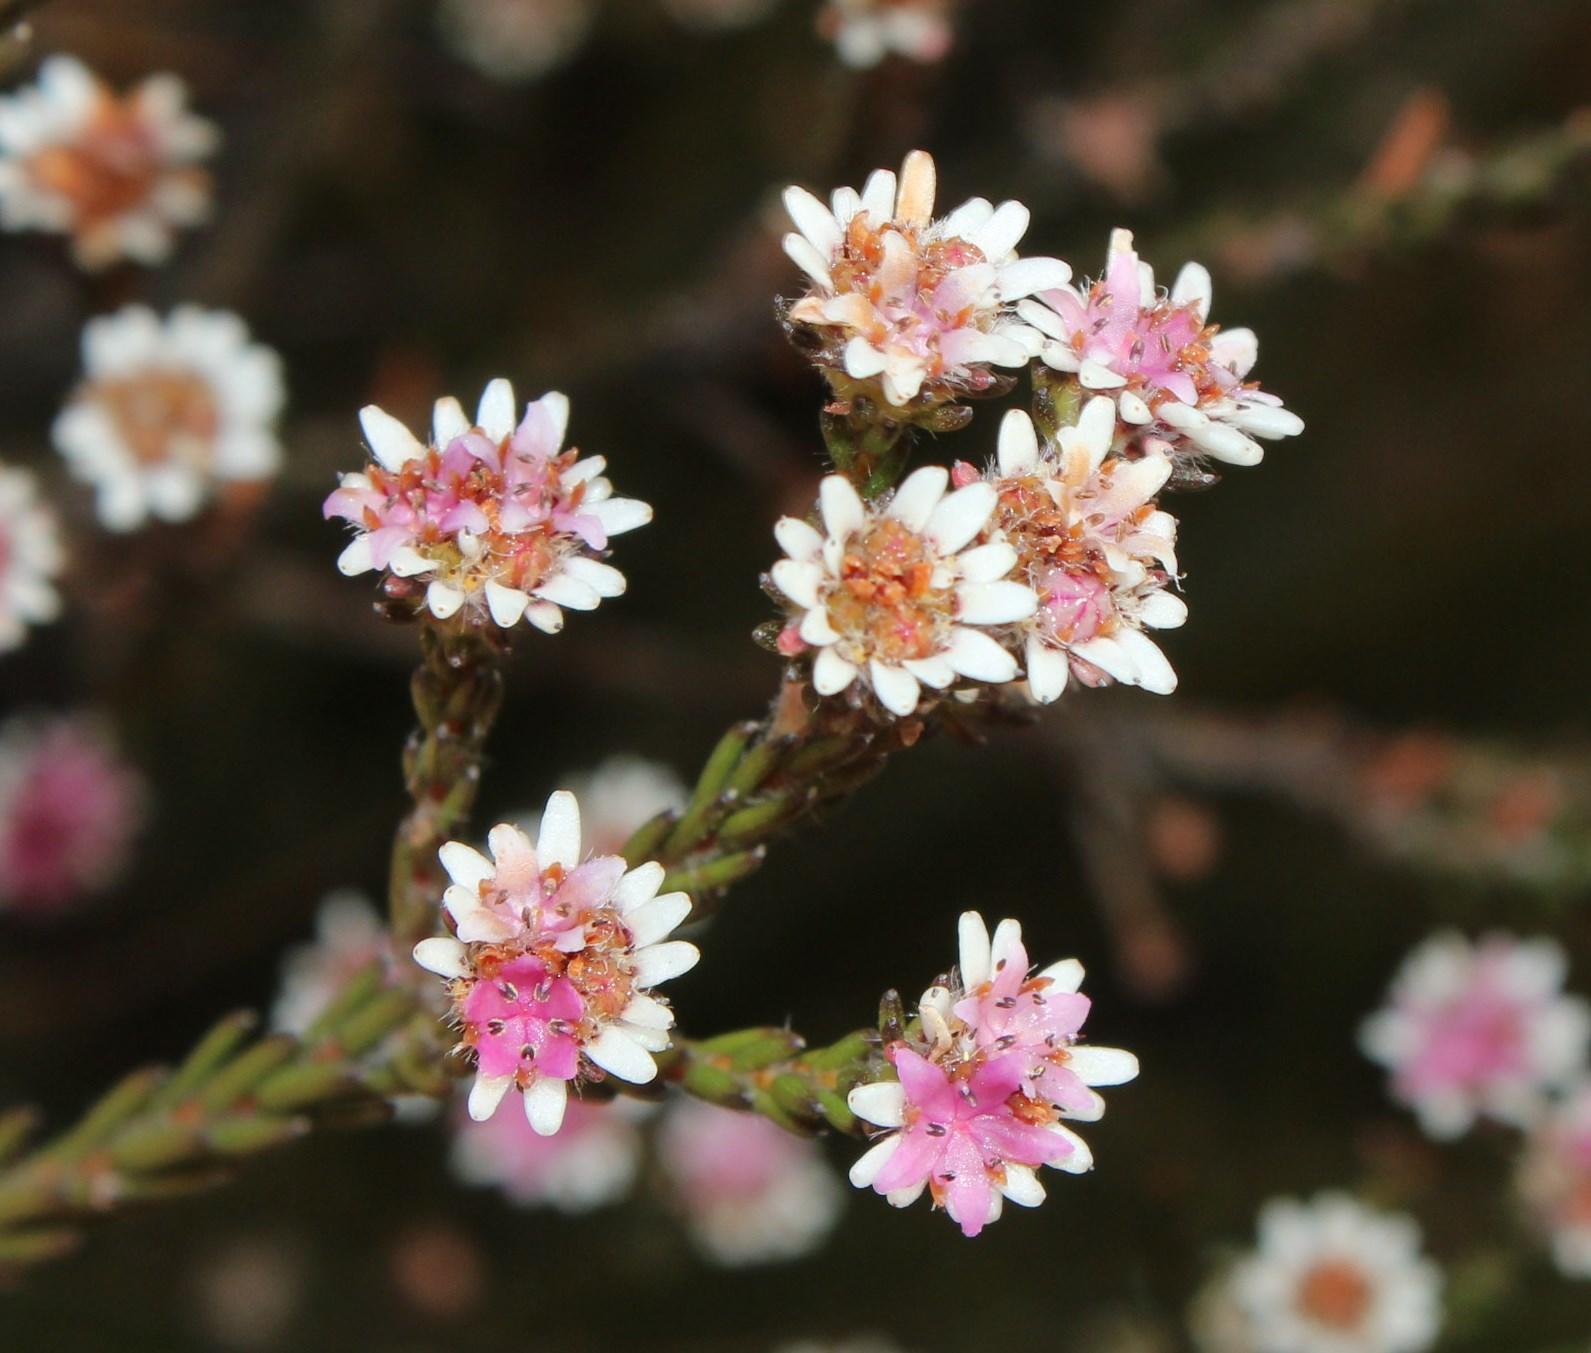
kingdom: Plantae
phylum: Tracheophyta
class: Magnoliopsida
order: Bruniales
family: Bruniaceae
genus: Staavia
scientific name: Staavia radiata
